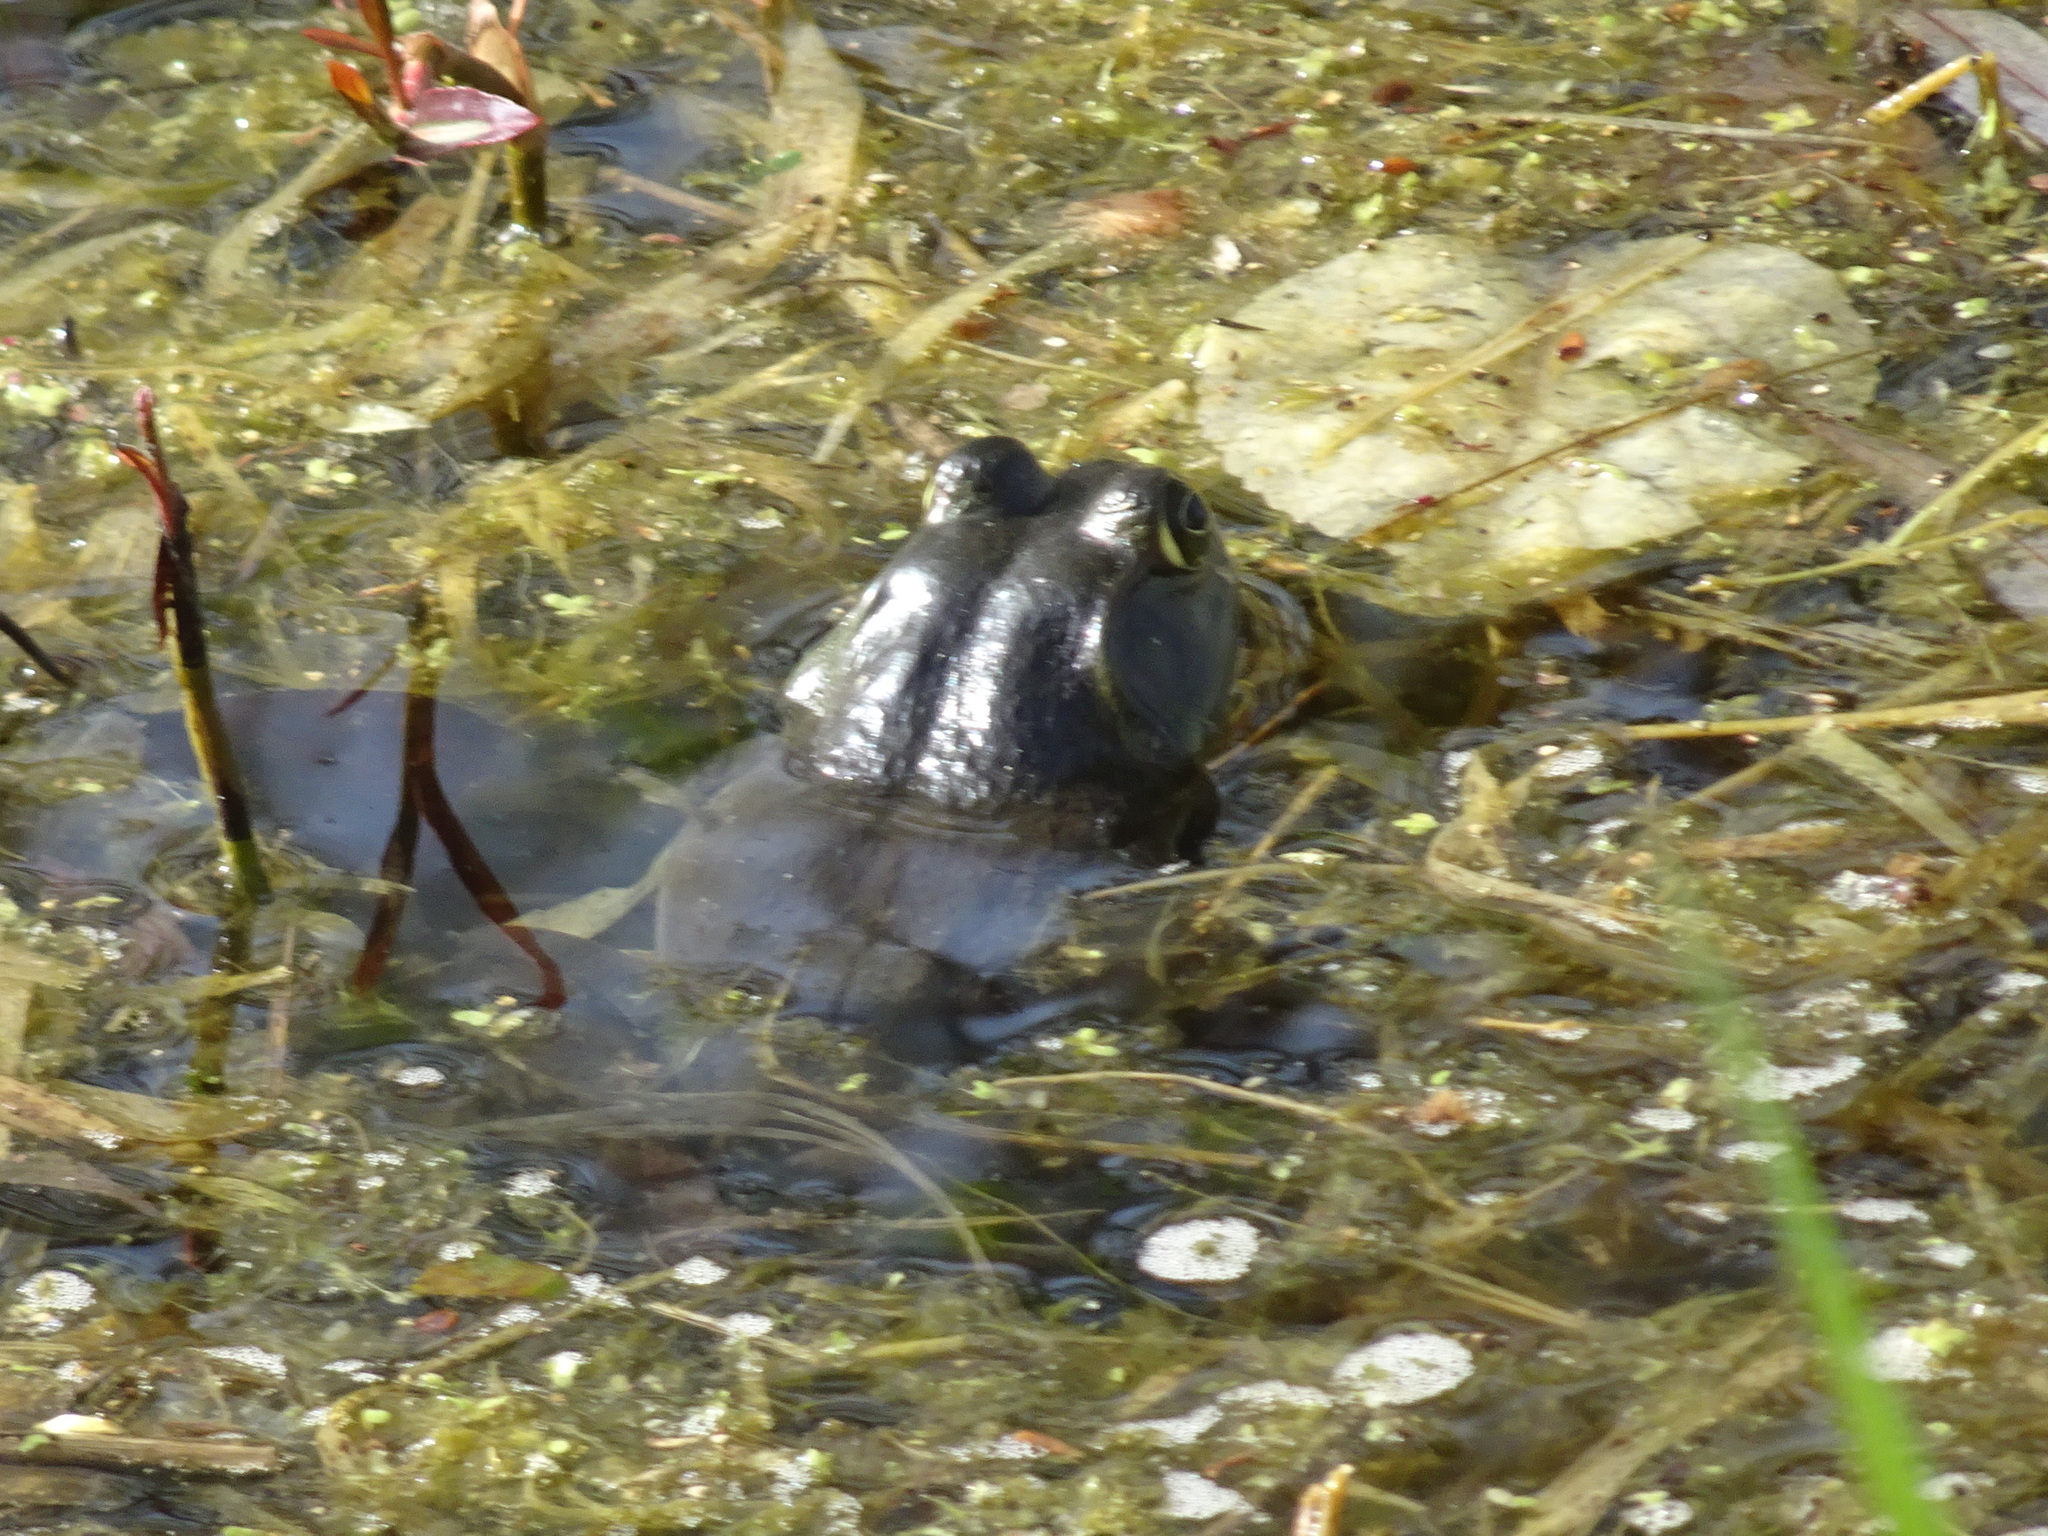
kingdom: Animalia
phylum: Chordata
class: Amphibia
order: Anura
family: Ranidae
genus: Lithobates
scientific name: Lithobates catesbeianus
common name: American bullfrog
